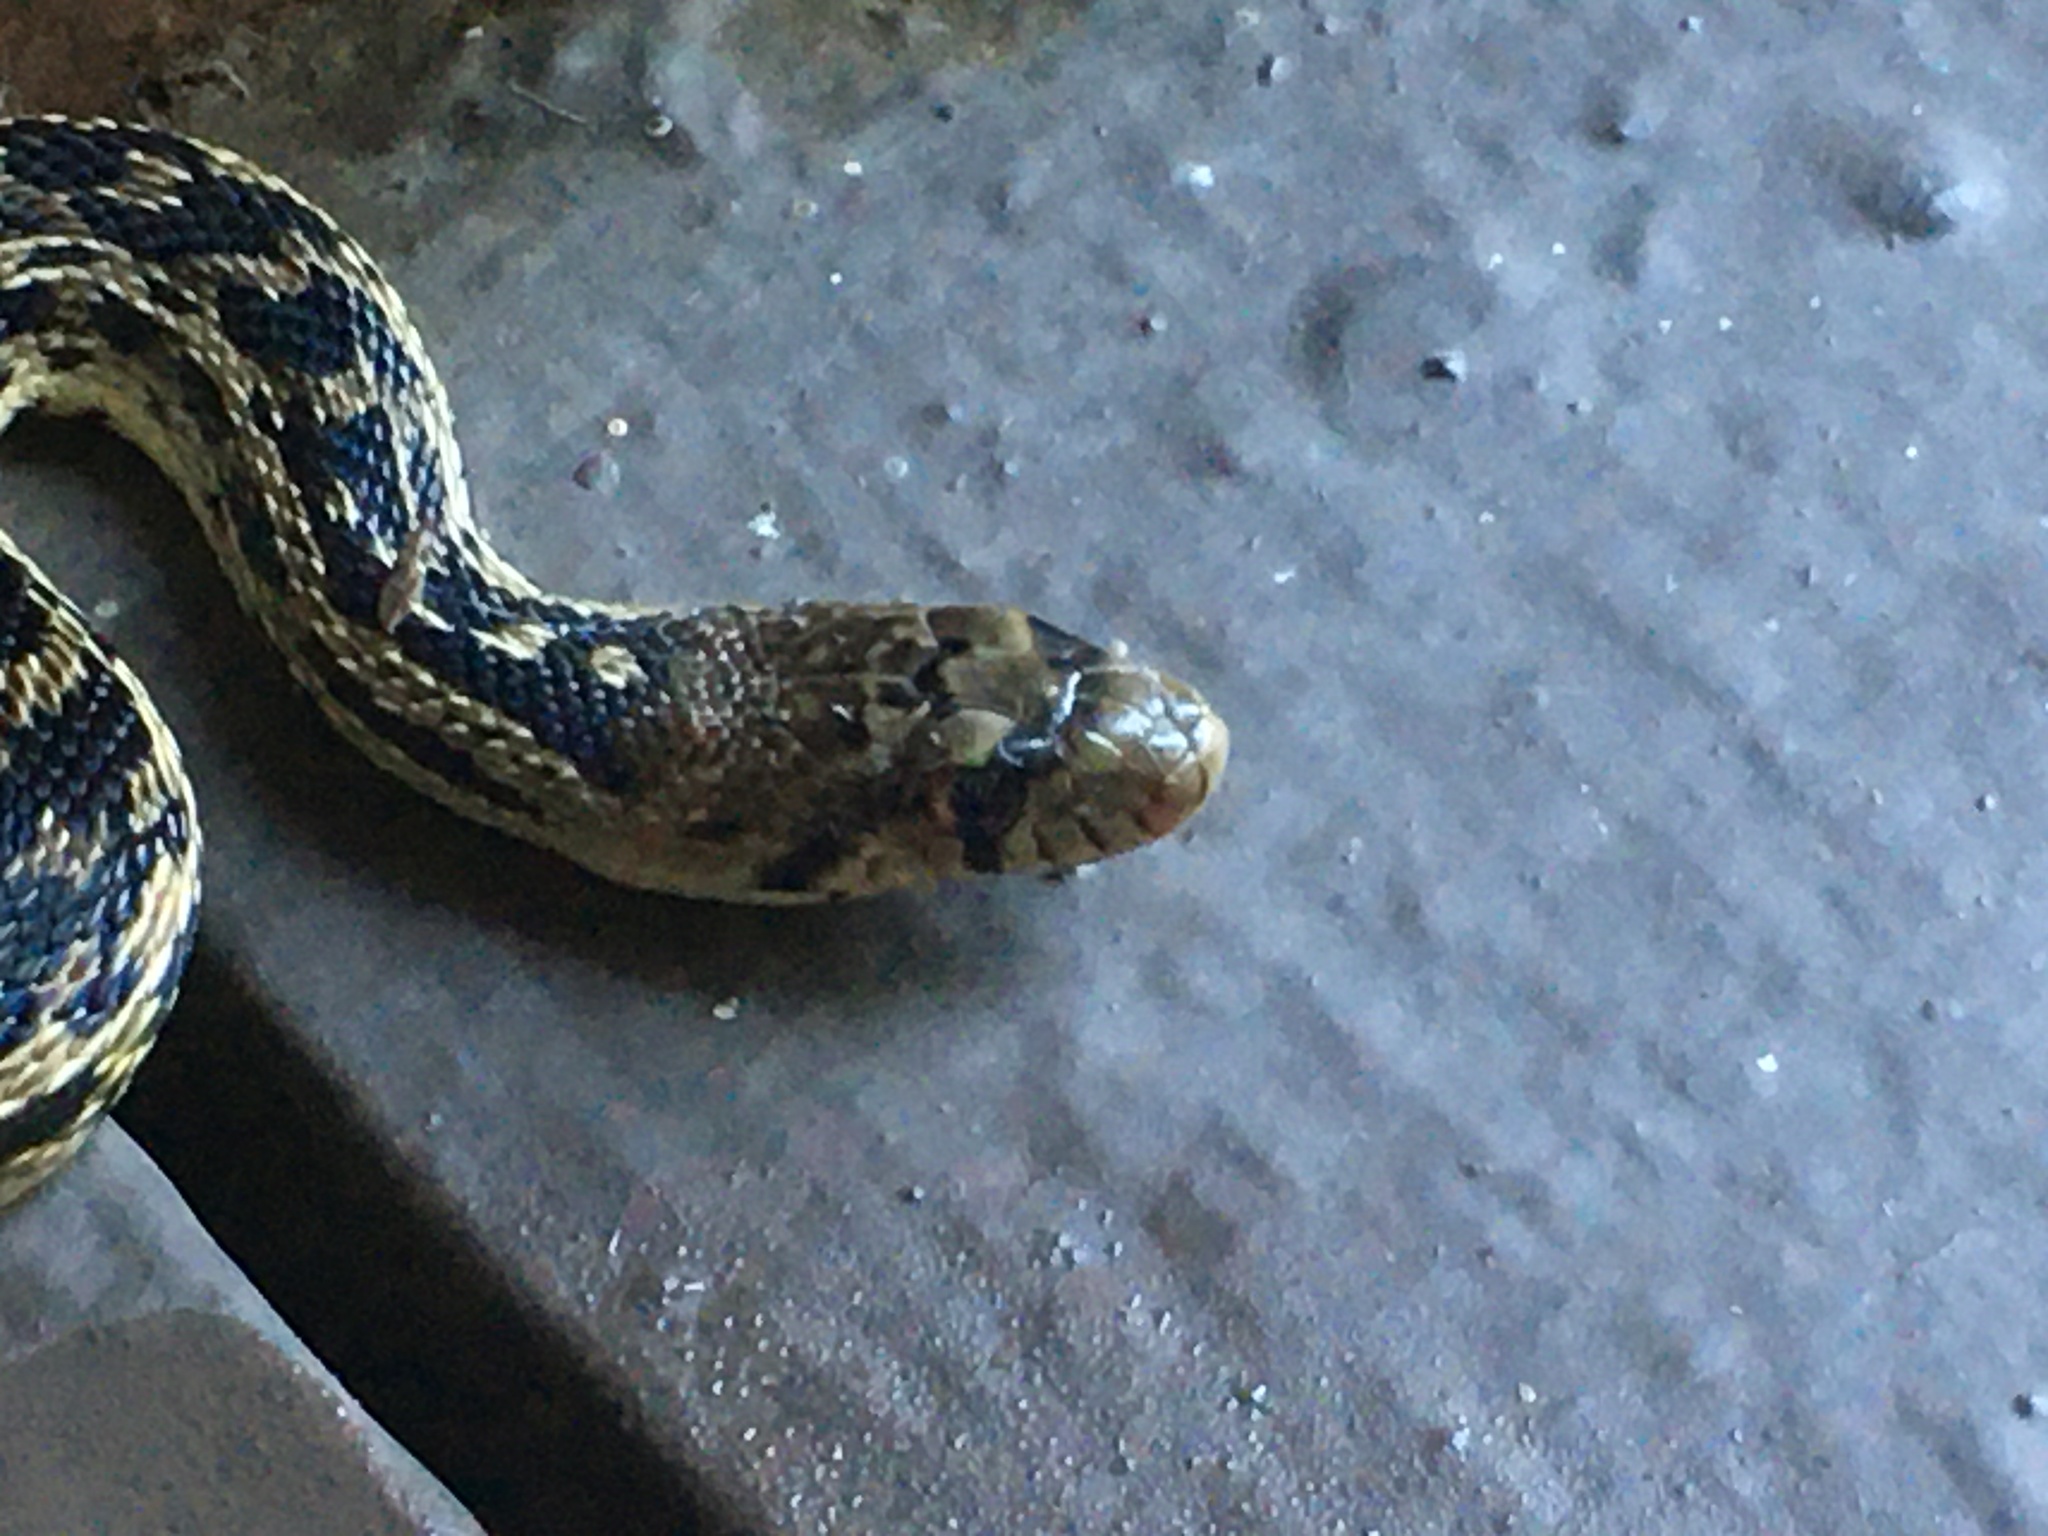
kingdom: Animalia
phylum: Chordata
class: Squamata
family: Colubridae
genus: Pituophis
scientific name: Pituophis catenifer
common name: Gopher snake
